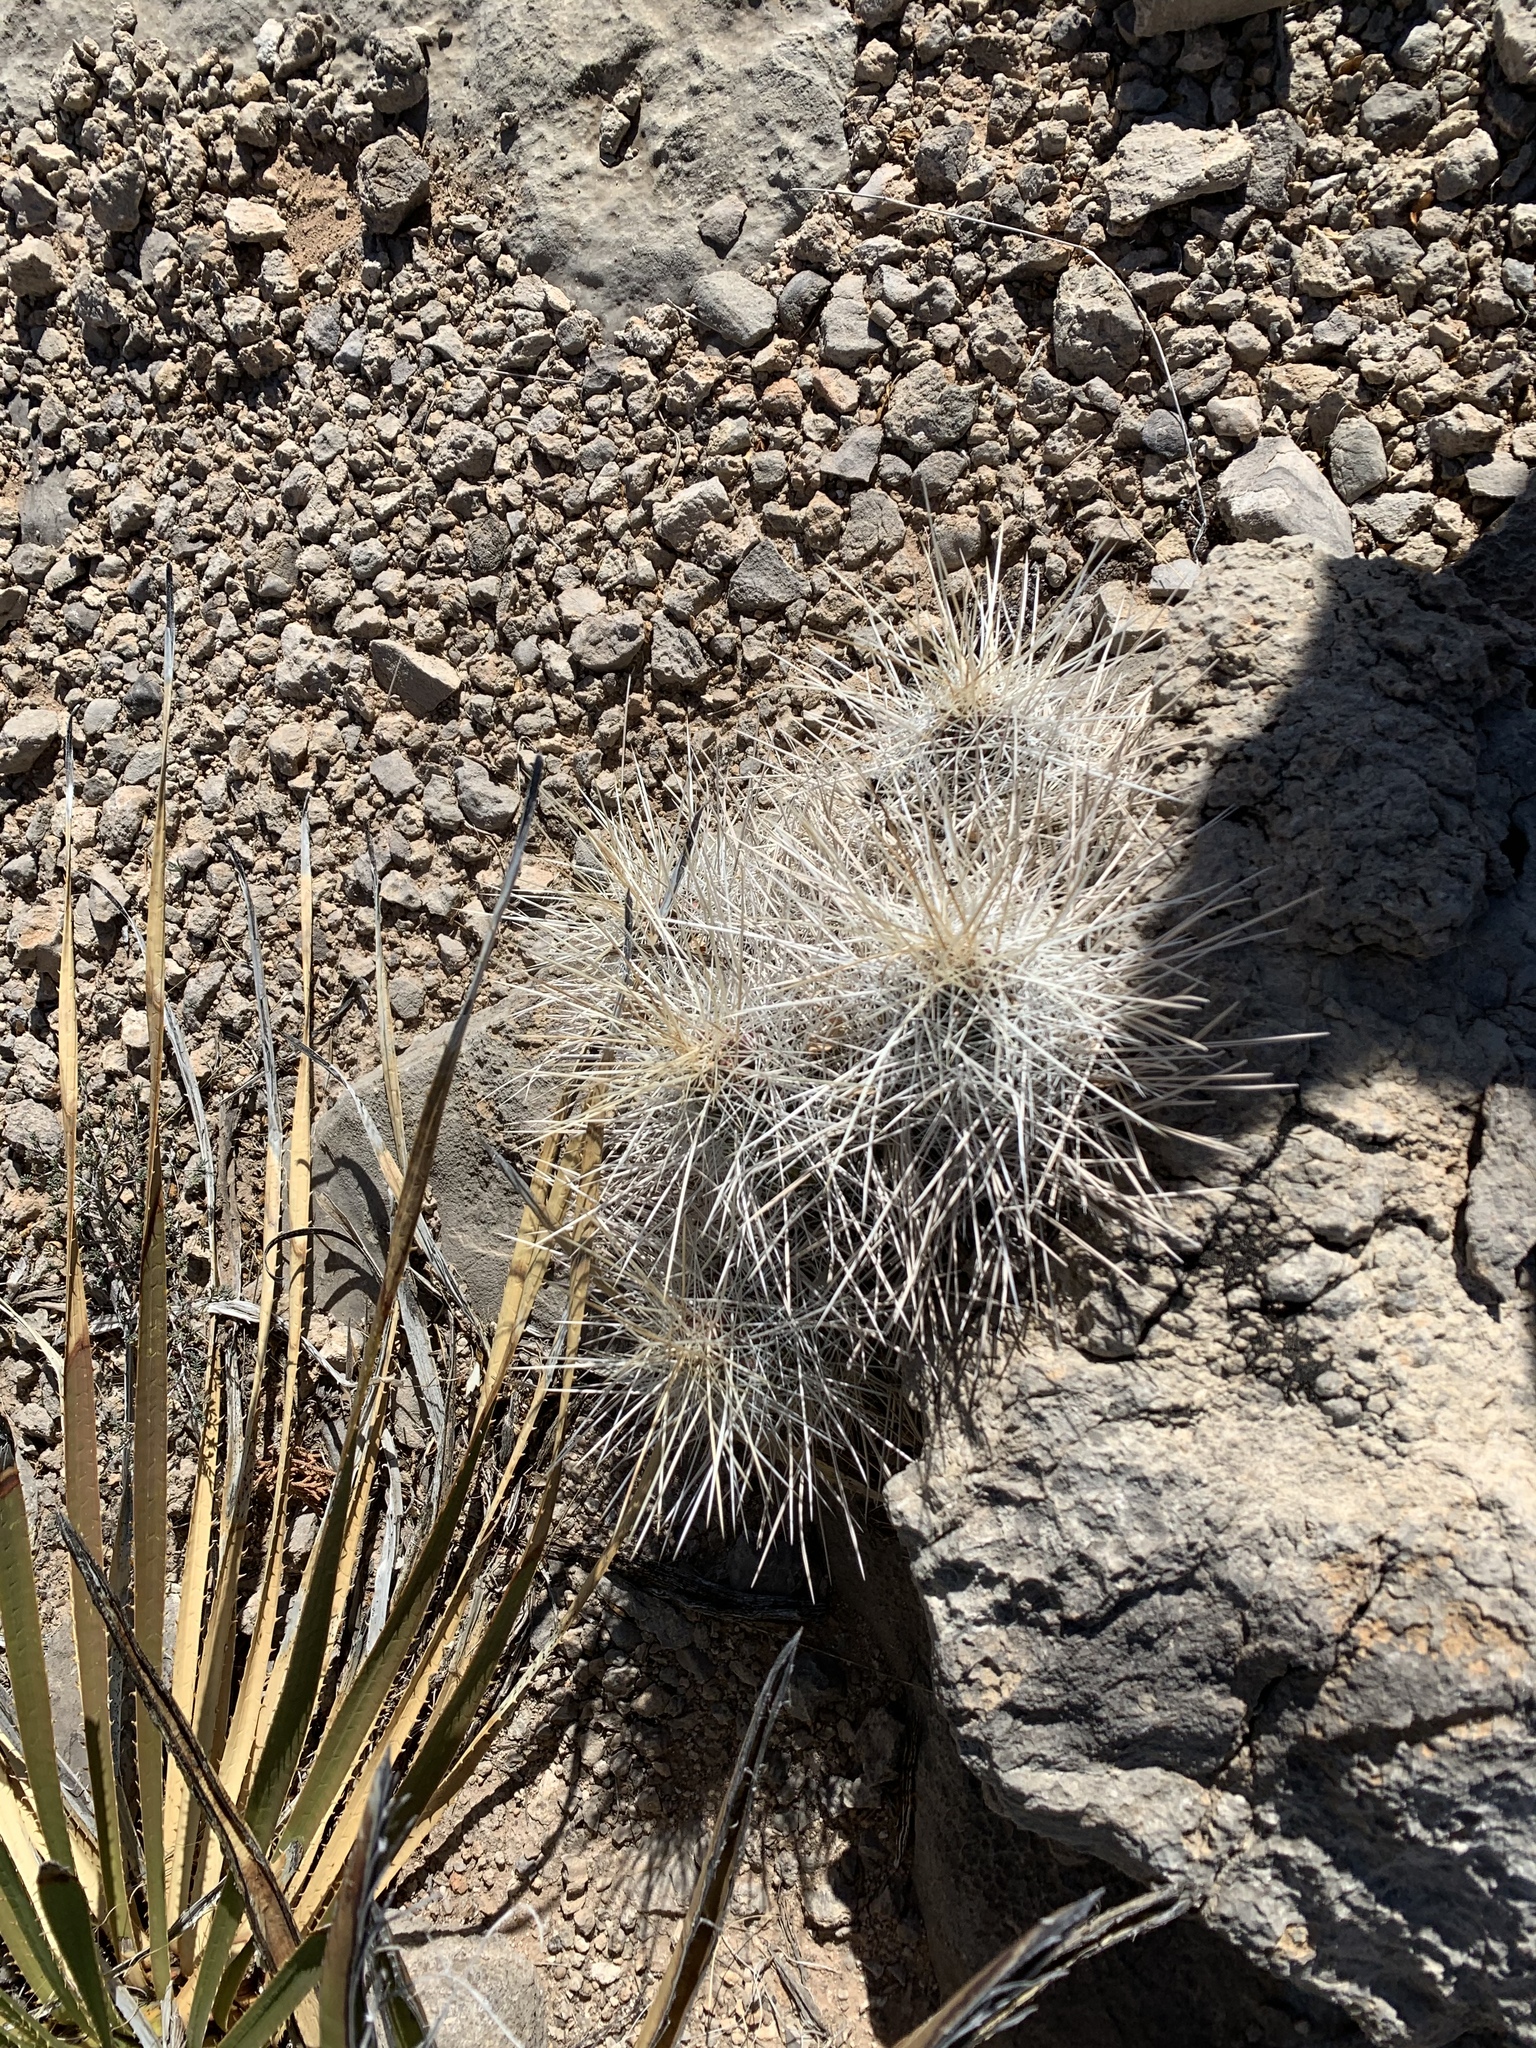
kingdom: Plantae
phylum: Tracheophyta
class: Magnoliopsida
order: Caryophyllales
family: Cactaceae
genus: Echinocereus
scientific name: Echinocereus stramineus
